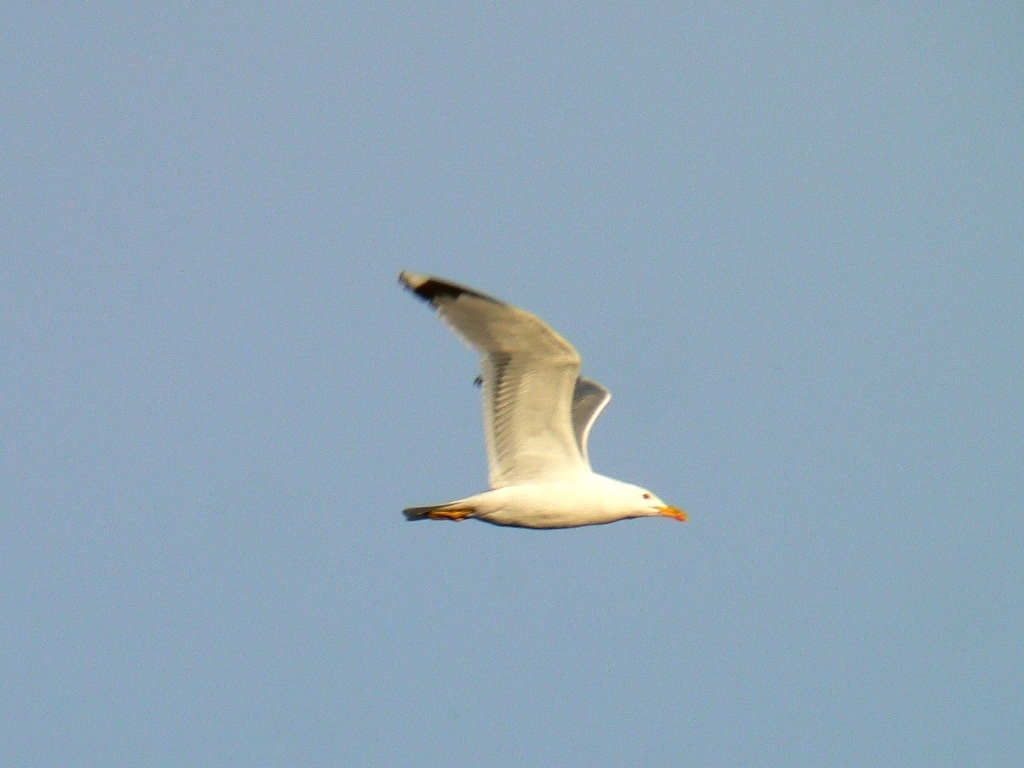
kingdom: Animalia
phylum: Chordata
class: Aves
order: Charadriiformes
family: Laridae
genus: Larus
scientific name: Larus fuscus
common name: Lesser black-backed gull
